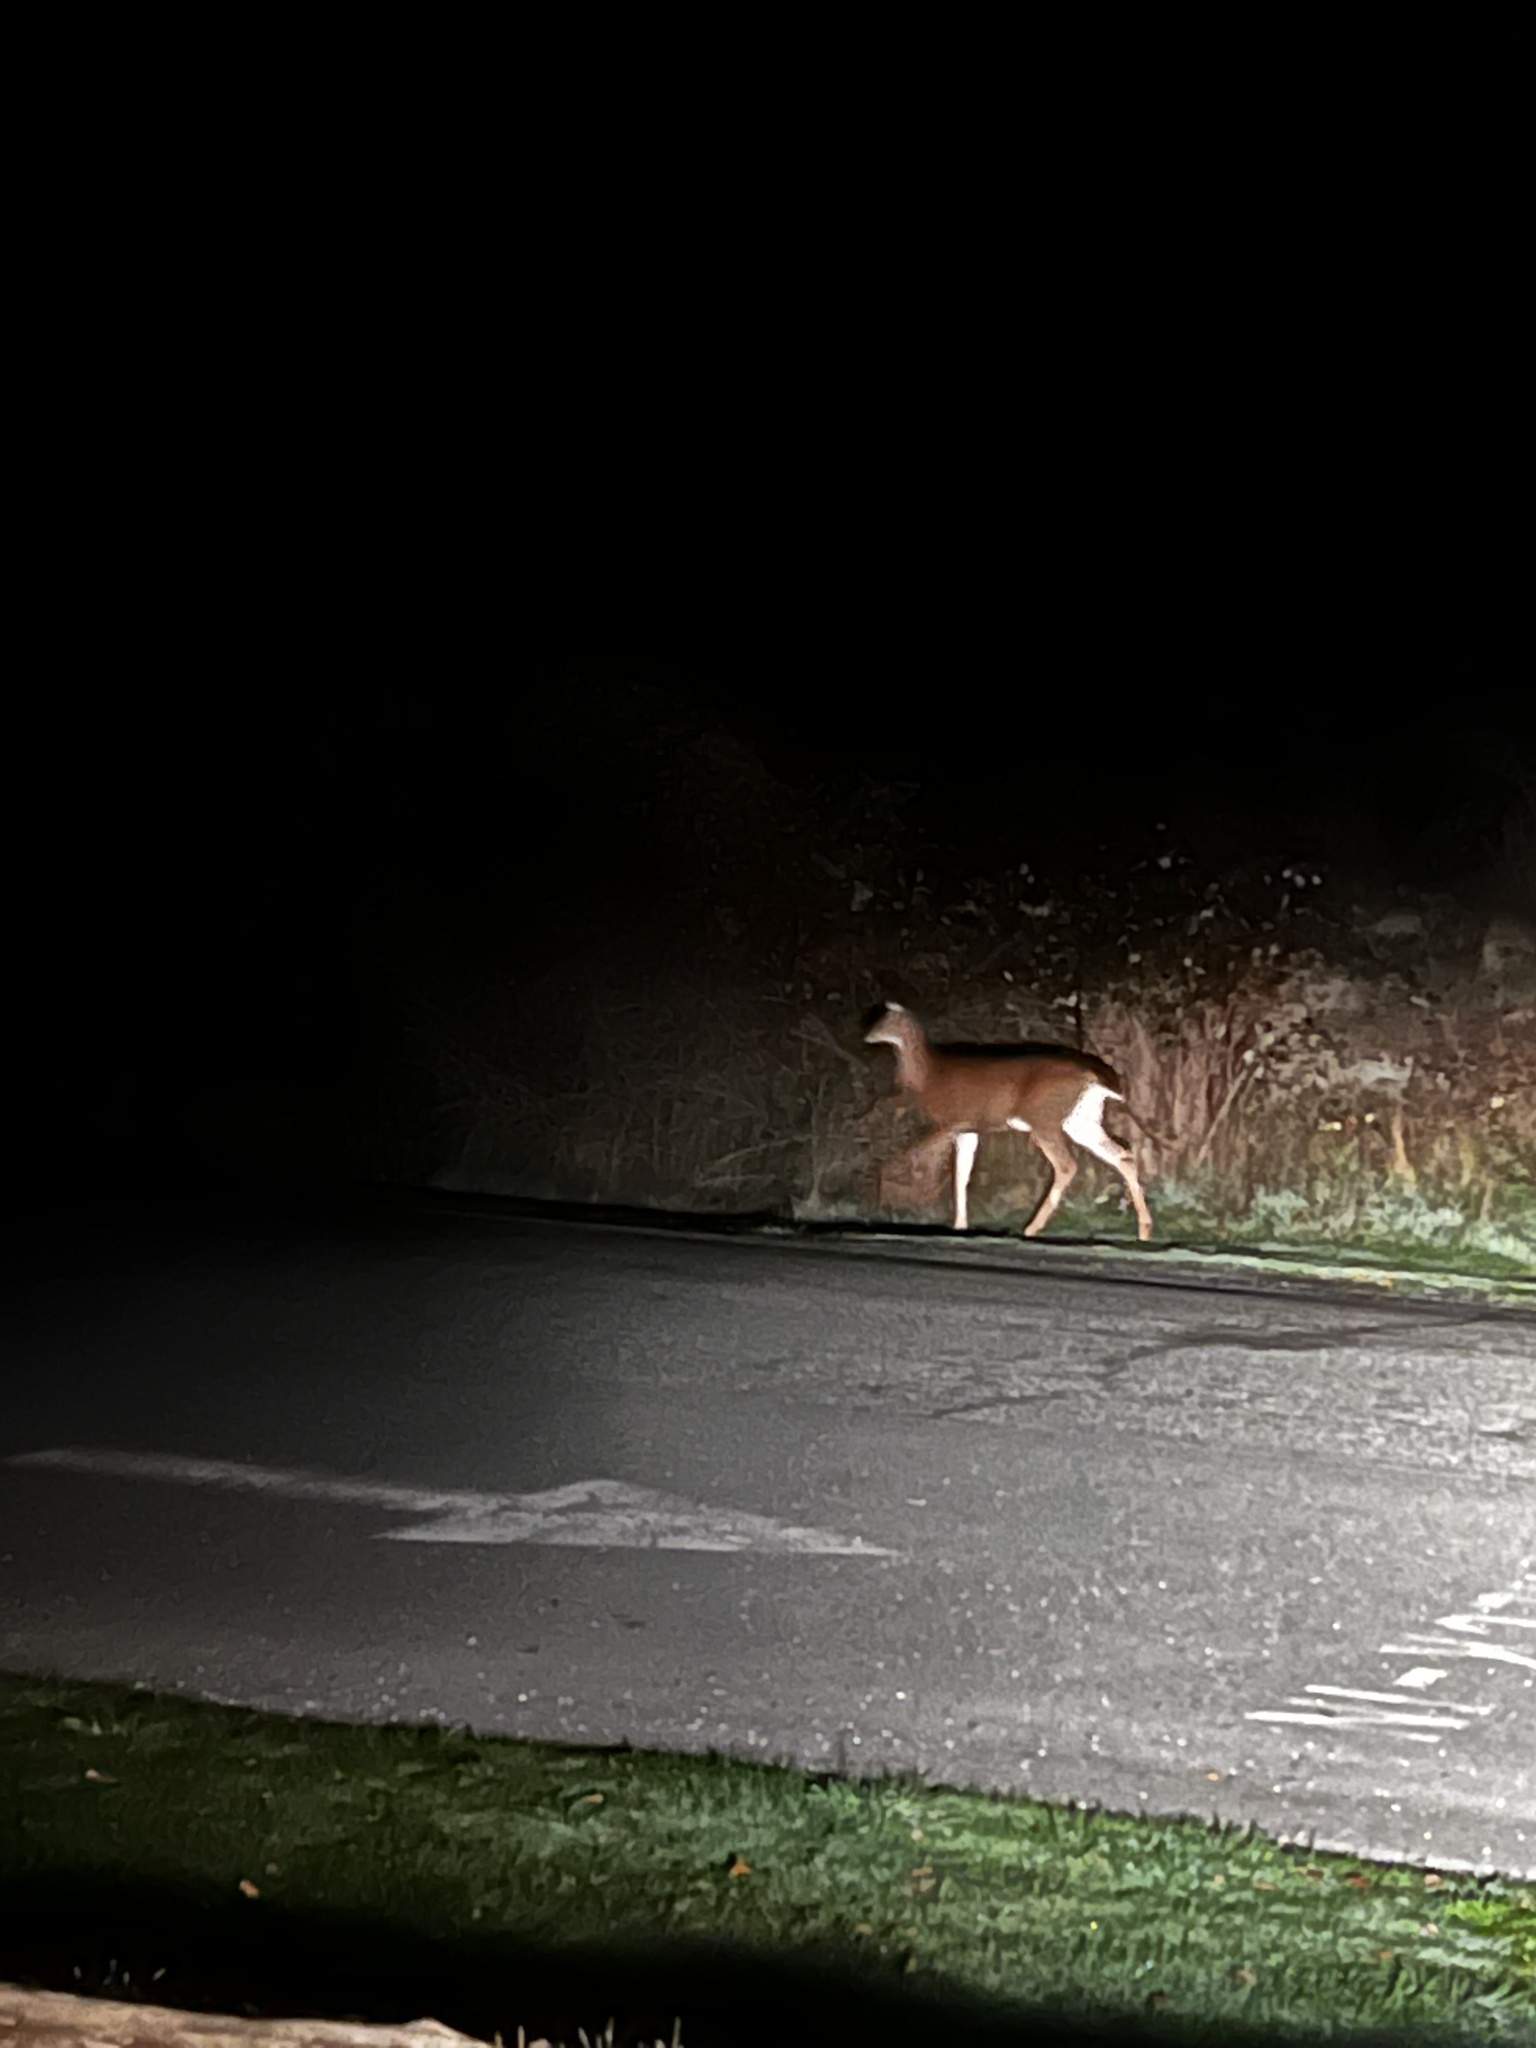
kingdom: Animalia
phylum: Chordata
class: Mammalia
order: Artiodactyla
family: Cervidae
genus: Odocoileus
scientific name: Odocoileus hemionus
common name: Mule deer
